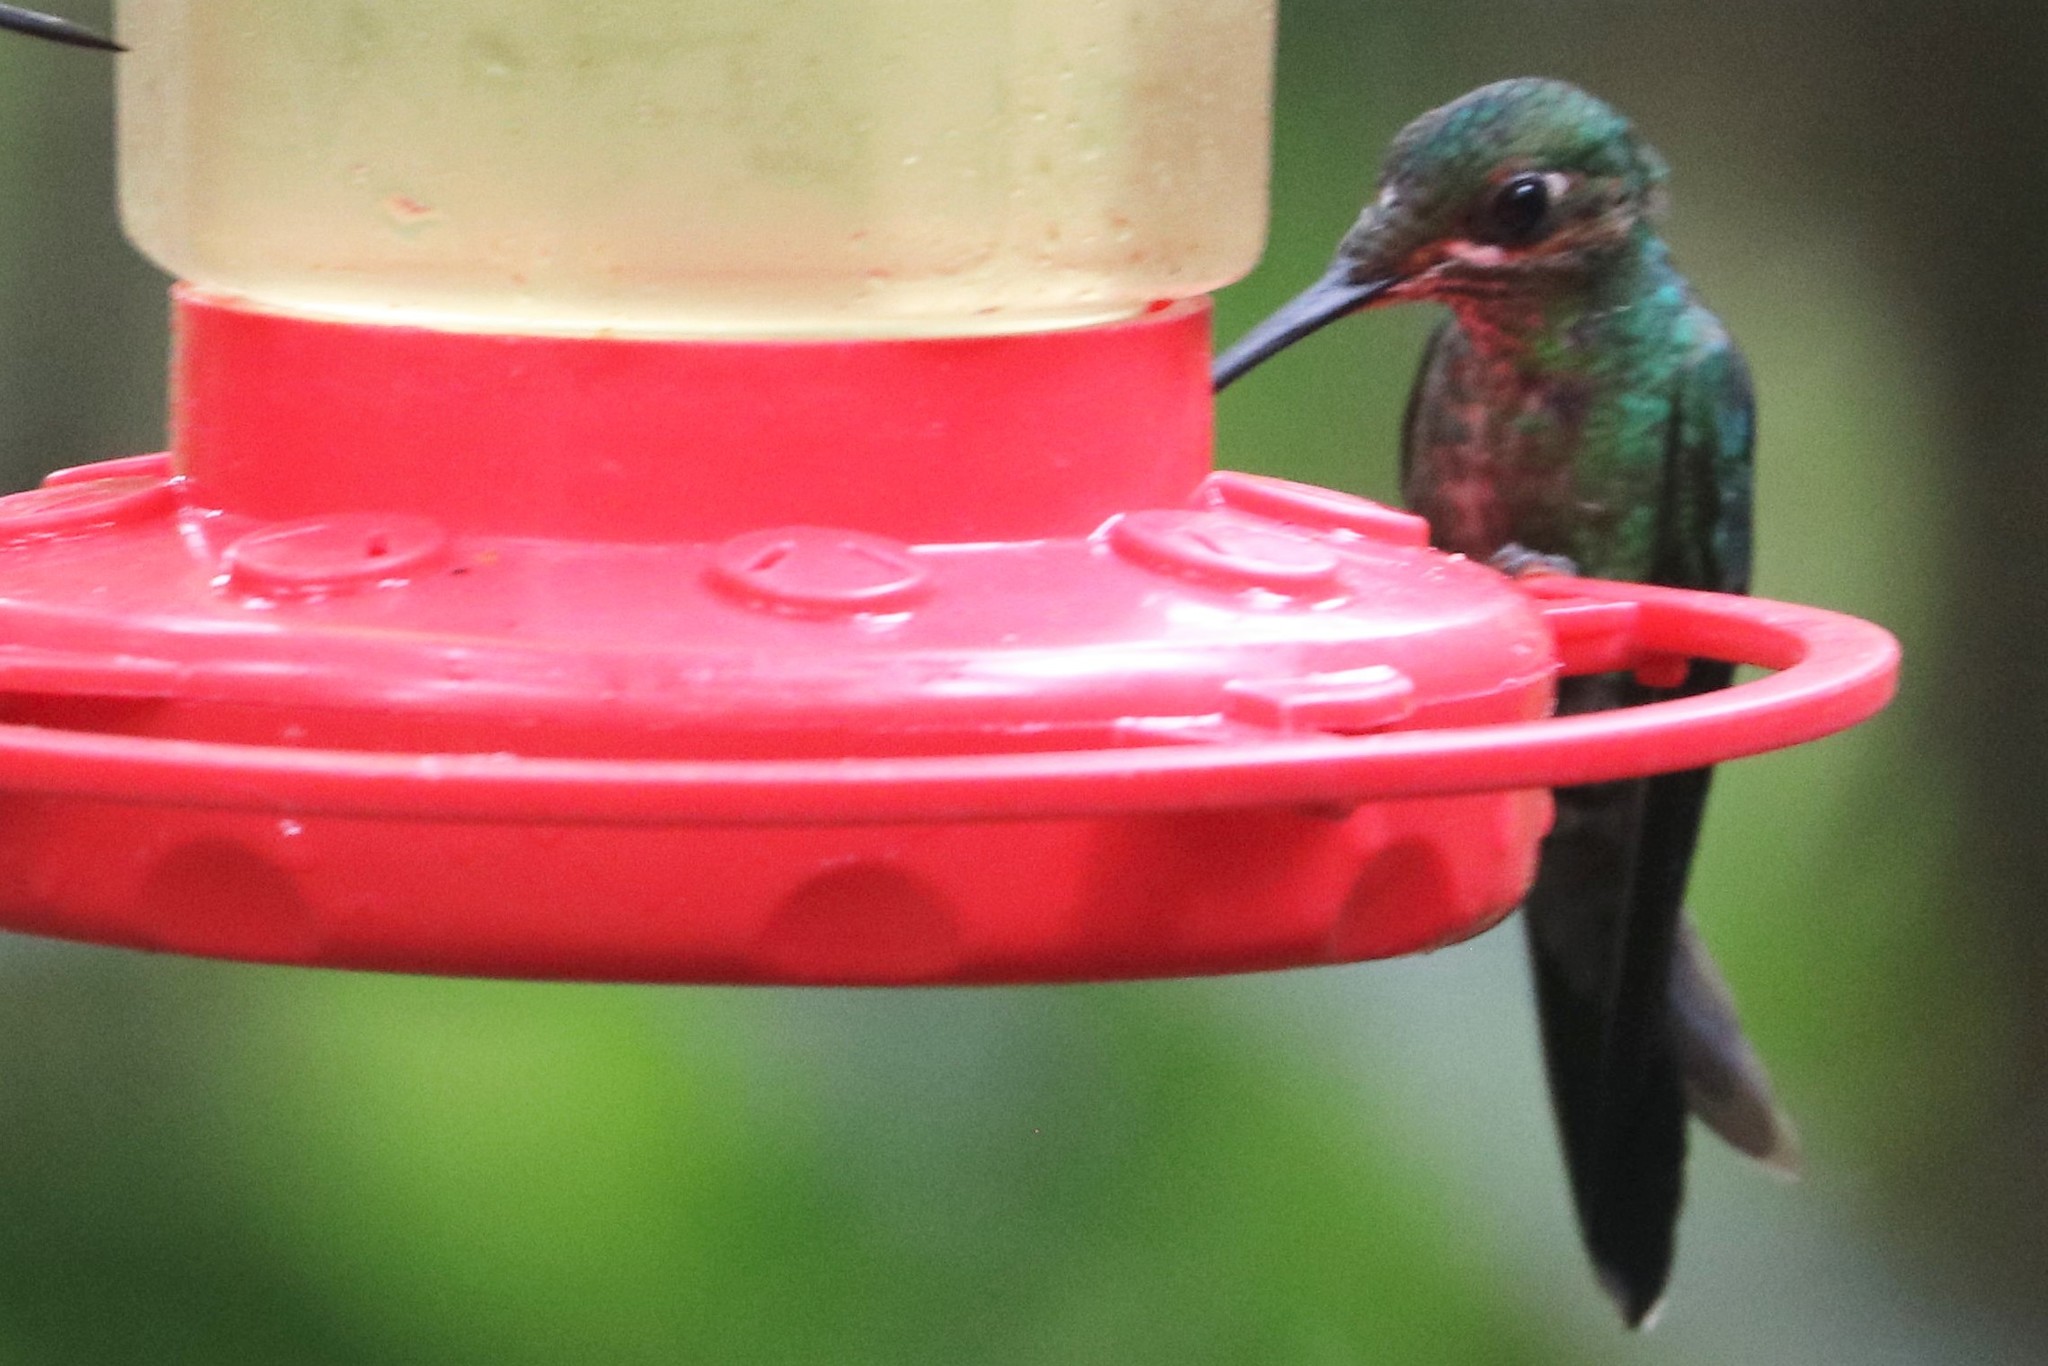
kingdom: Animalia
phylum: Chordata
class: Aves
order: Apodiformes
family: Trochilidae
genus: Heliodoxa
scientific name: Heliodoxa jacula
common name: Green-crowned brilliant
